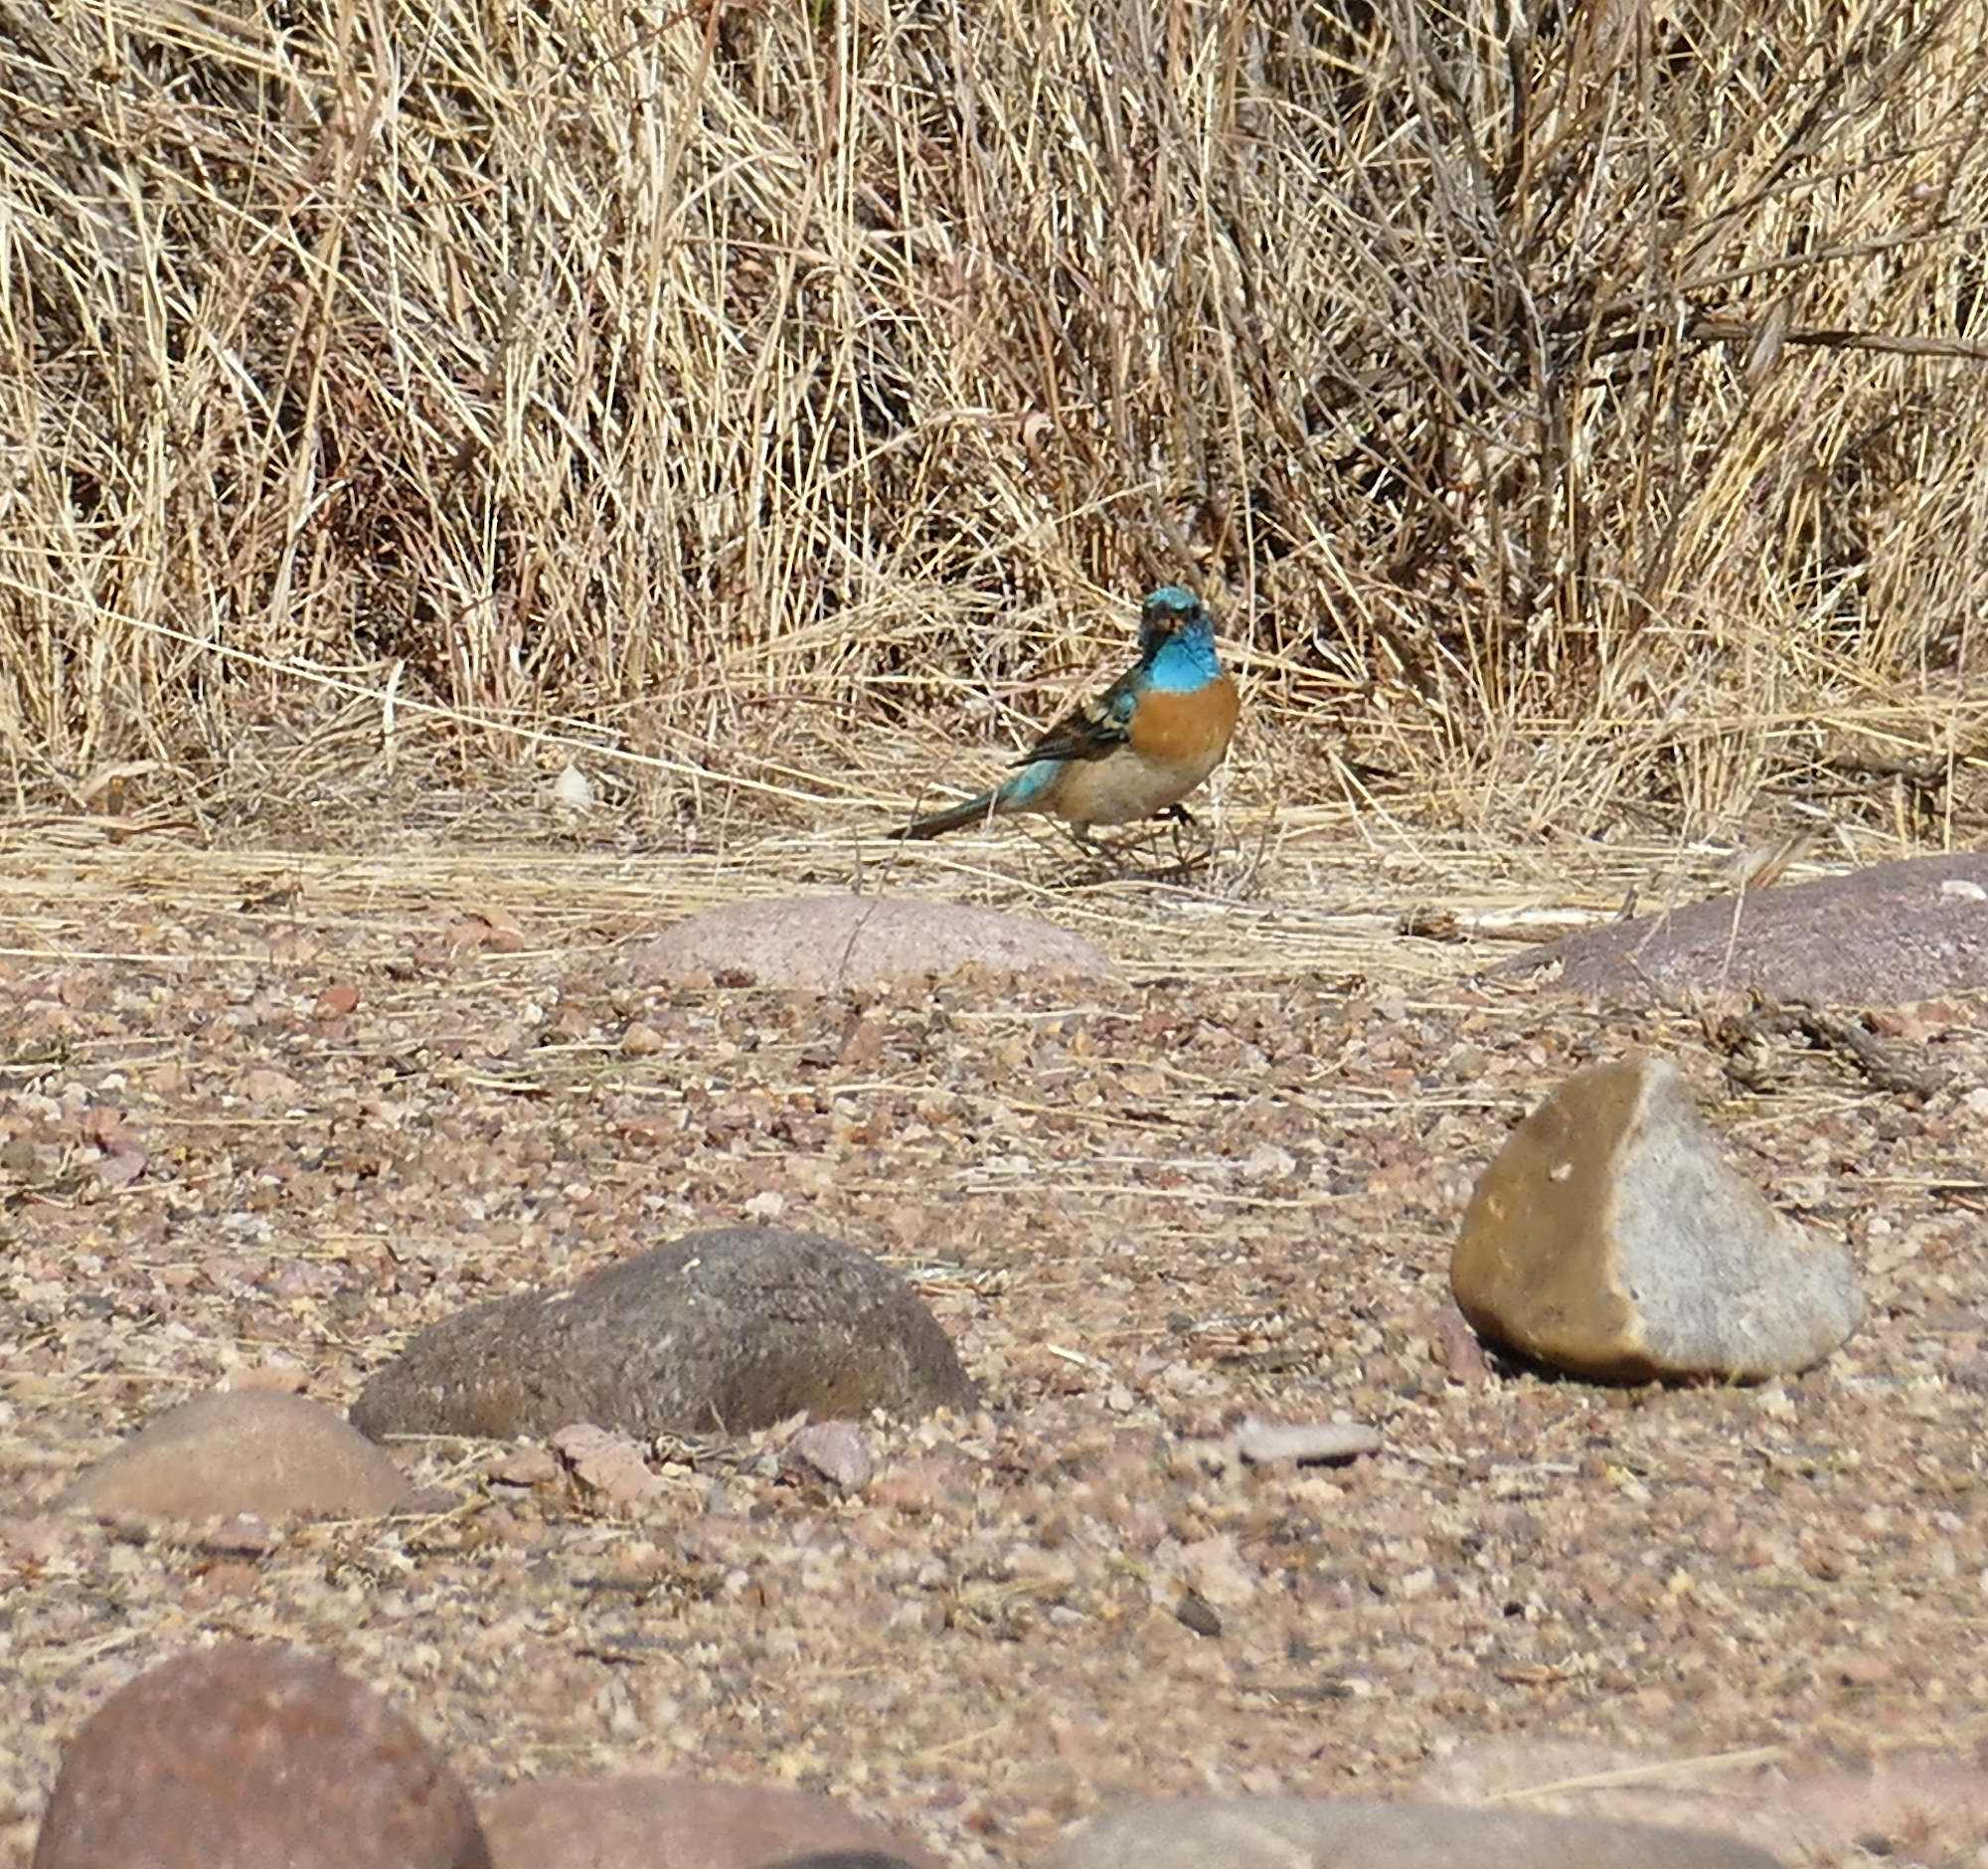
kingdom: Animalia
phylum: Chordata
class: Aves
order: Passeriformes
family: Cardinalidae
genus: Passerina
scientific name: Passerina amoena
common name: Lazuli bunting
